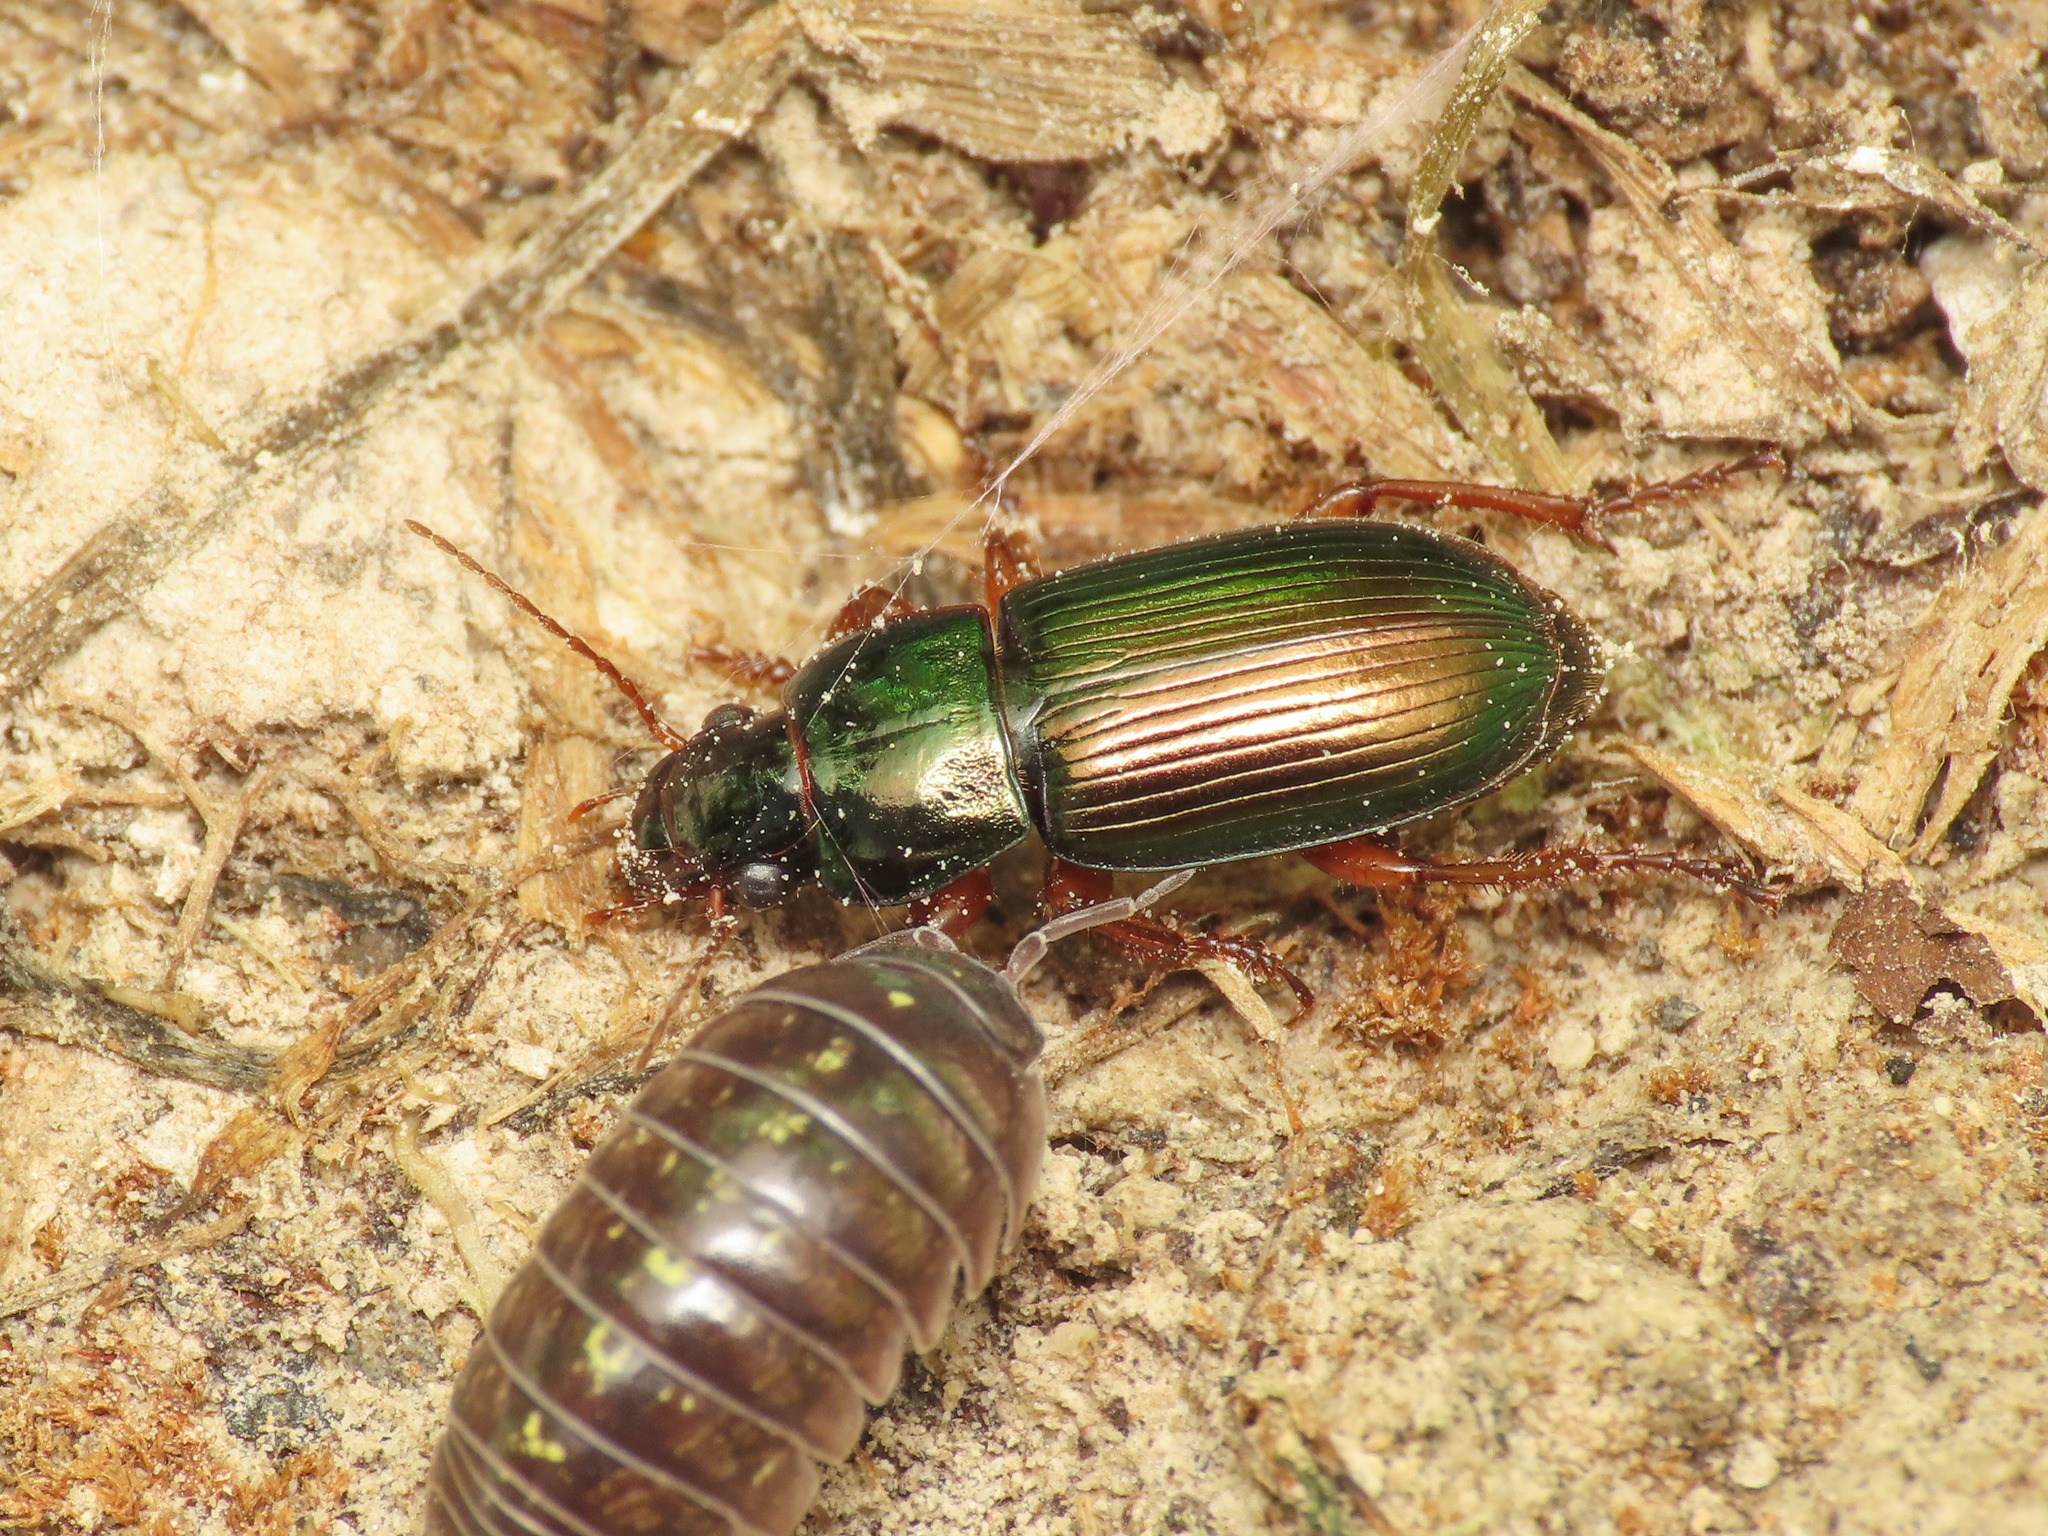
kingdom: Animalia
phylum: Arthropoda
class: Insecta
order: Coleoptera
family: Carabidae
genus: Harpalus
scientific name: Harpalus affinis
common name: Polychrome harp ground beetle
